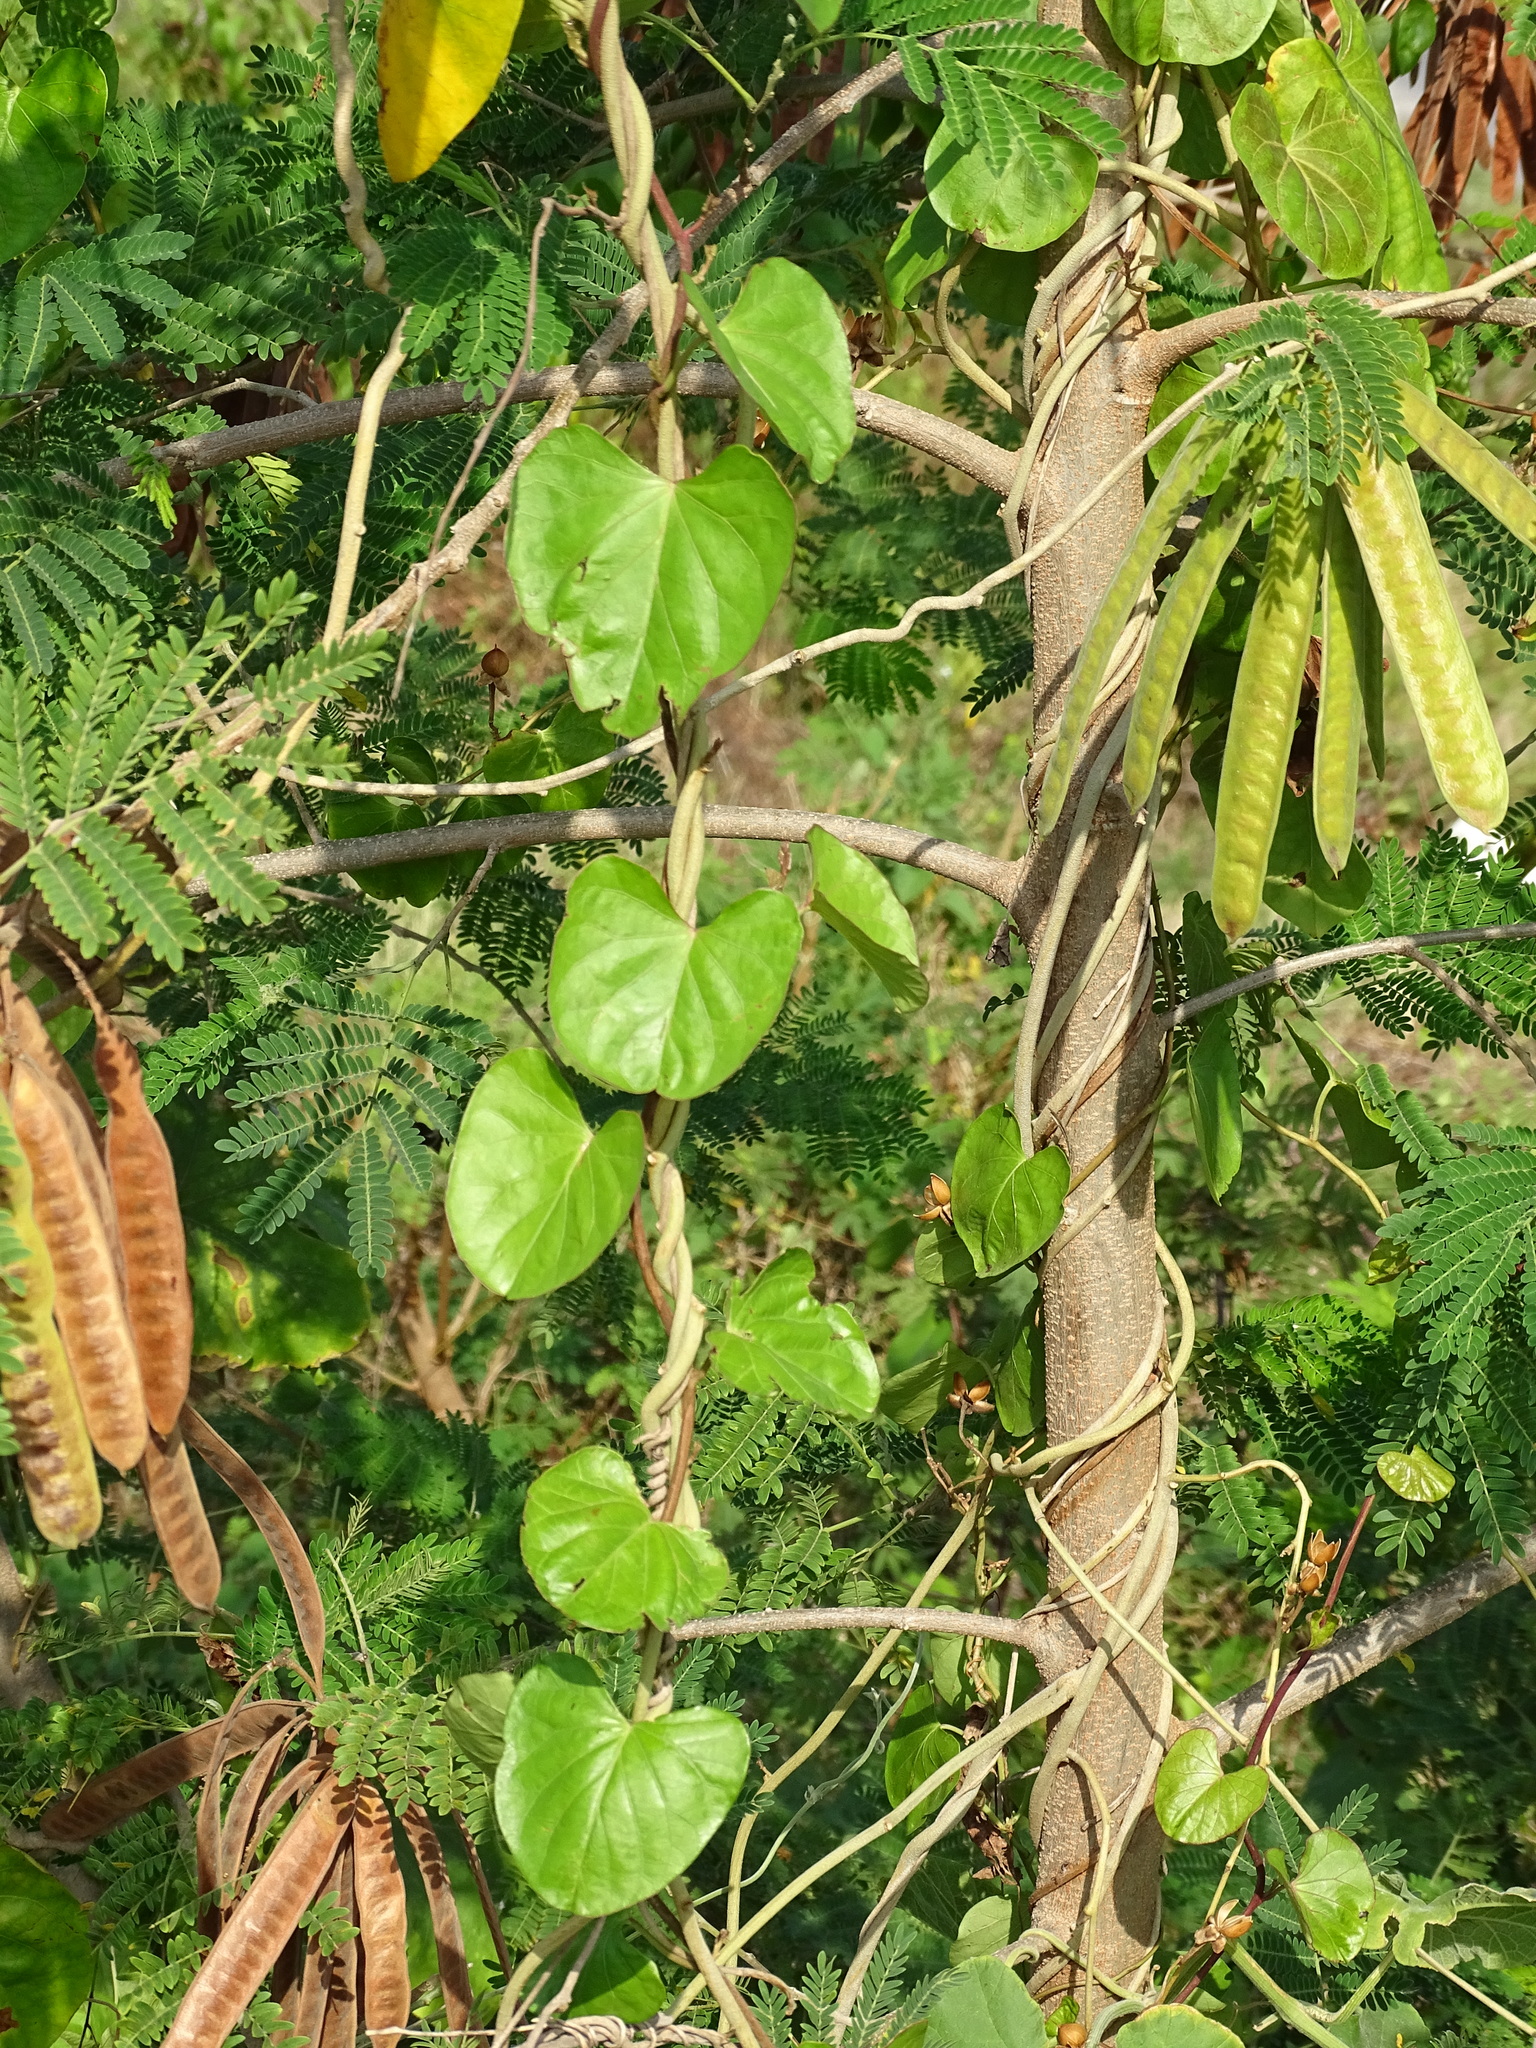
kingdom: Plantae
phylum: Tracheophyta
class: Magnoliopsida
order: Solanales
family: Convolvulaceae
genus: Ipomoea
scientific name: Ipomoea anisomeres
